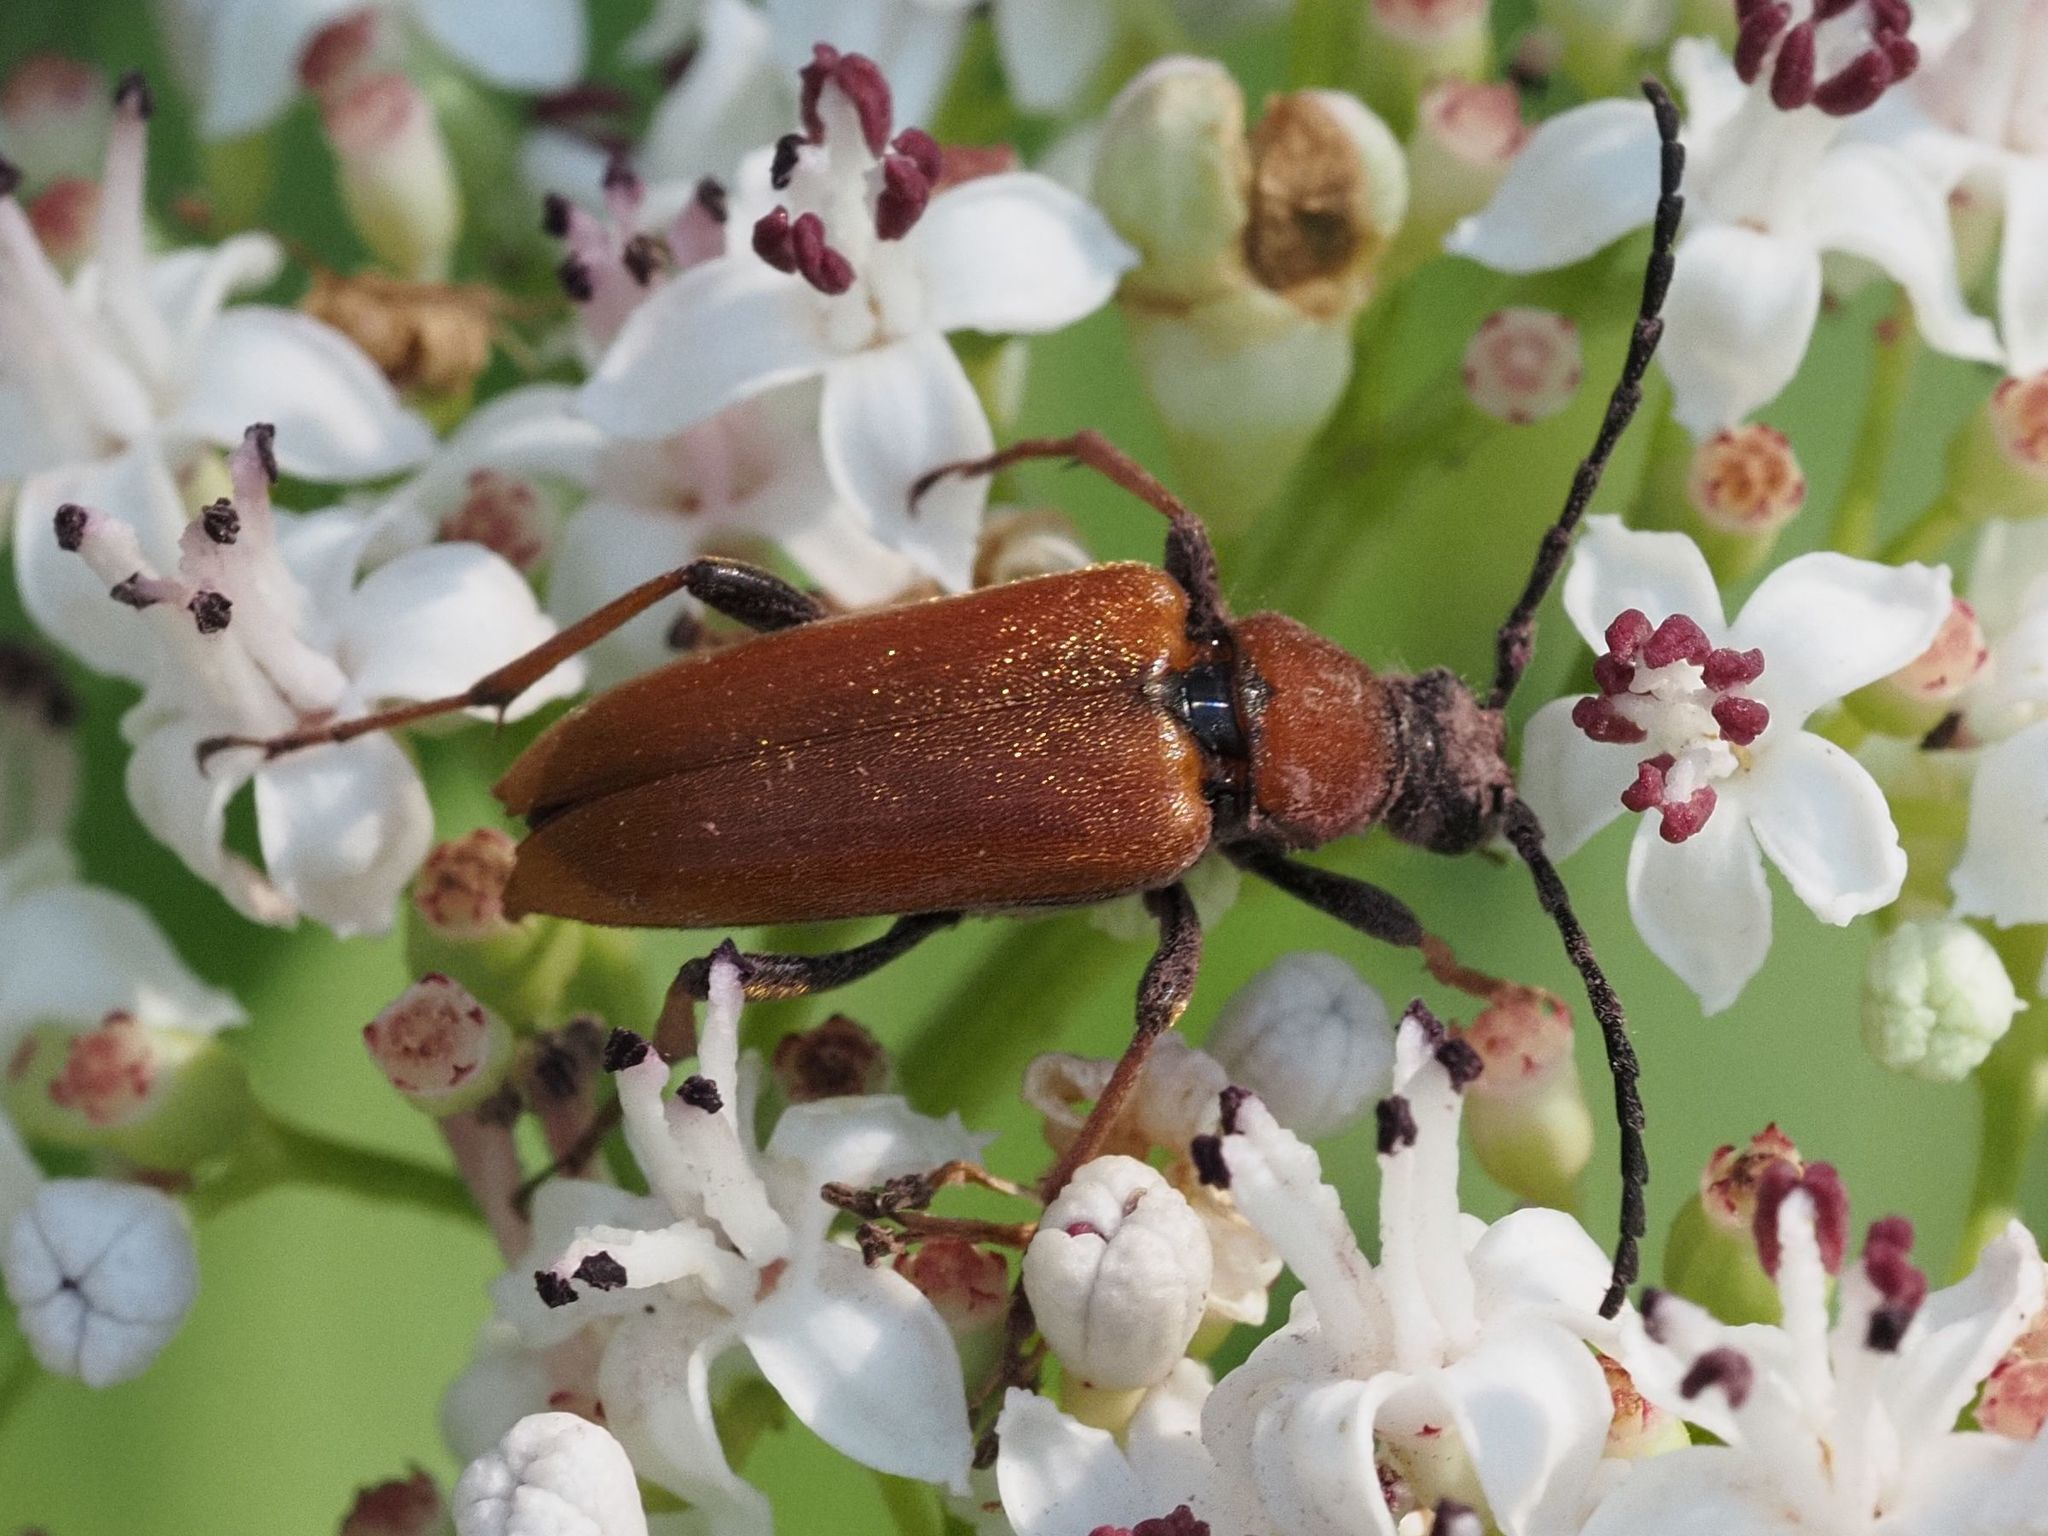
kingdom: Animalia
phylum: Arthropoda
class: Insecta
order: Coleoptera
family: Cerambycidae
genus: Stictoleptura
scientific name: Stictoleptura rubra
